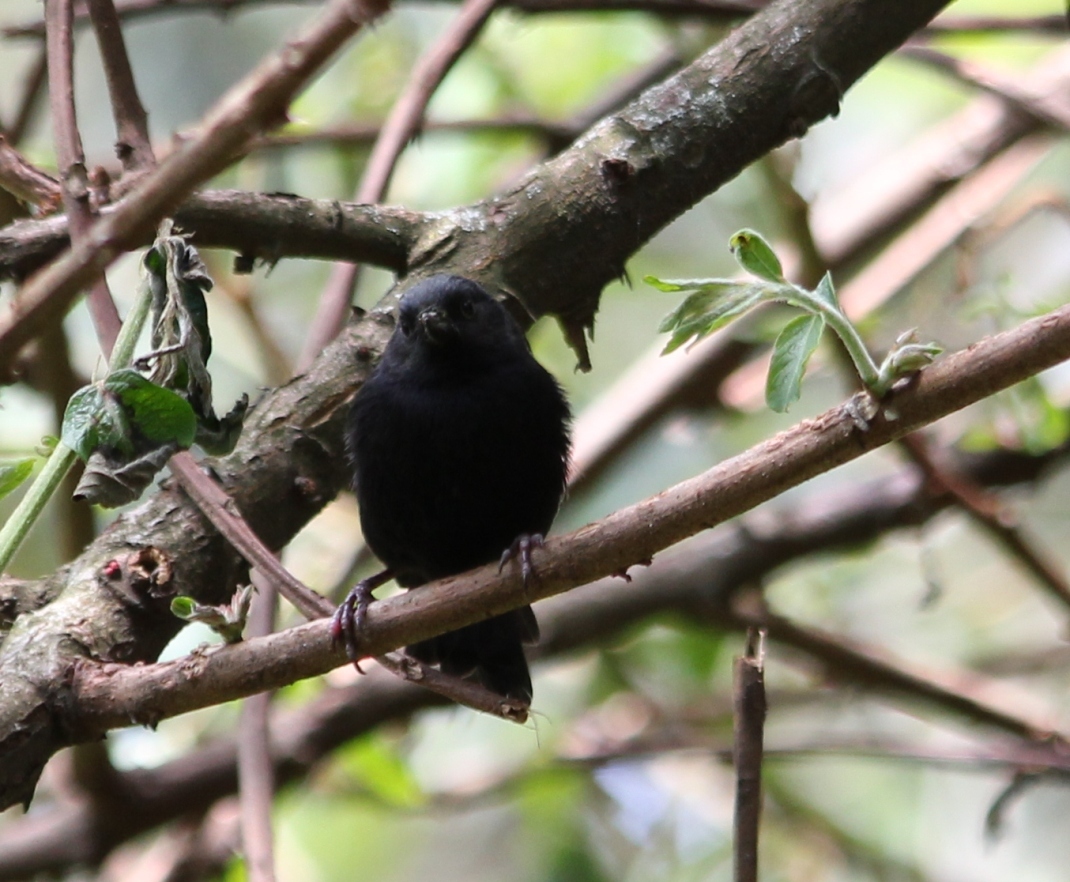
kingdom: Animalia
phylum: Chordata
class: Aves
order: Passeriformes
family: Thraupidae
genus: Diglossa
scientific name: Diglossa humeralis
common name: Black flowerpiercer
